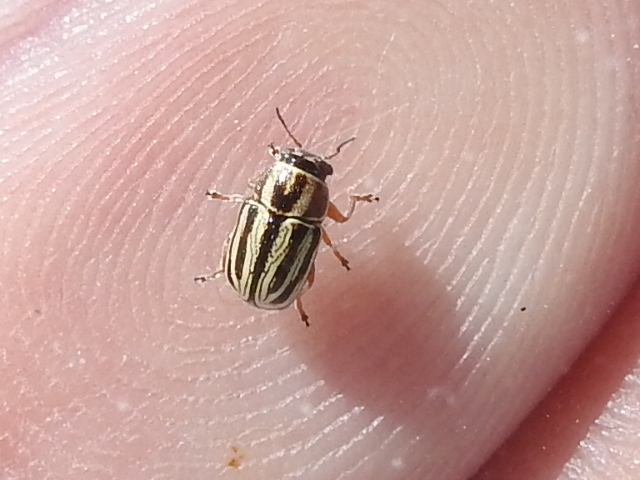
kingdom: Animalia
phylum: Arthropoda
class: Insecta
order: Coleoptera
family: Chrysomelidae
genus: Pachybrachis
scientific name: Pachybrachis dubiosus
